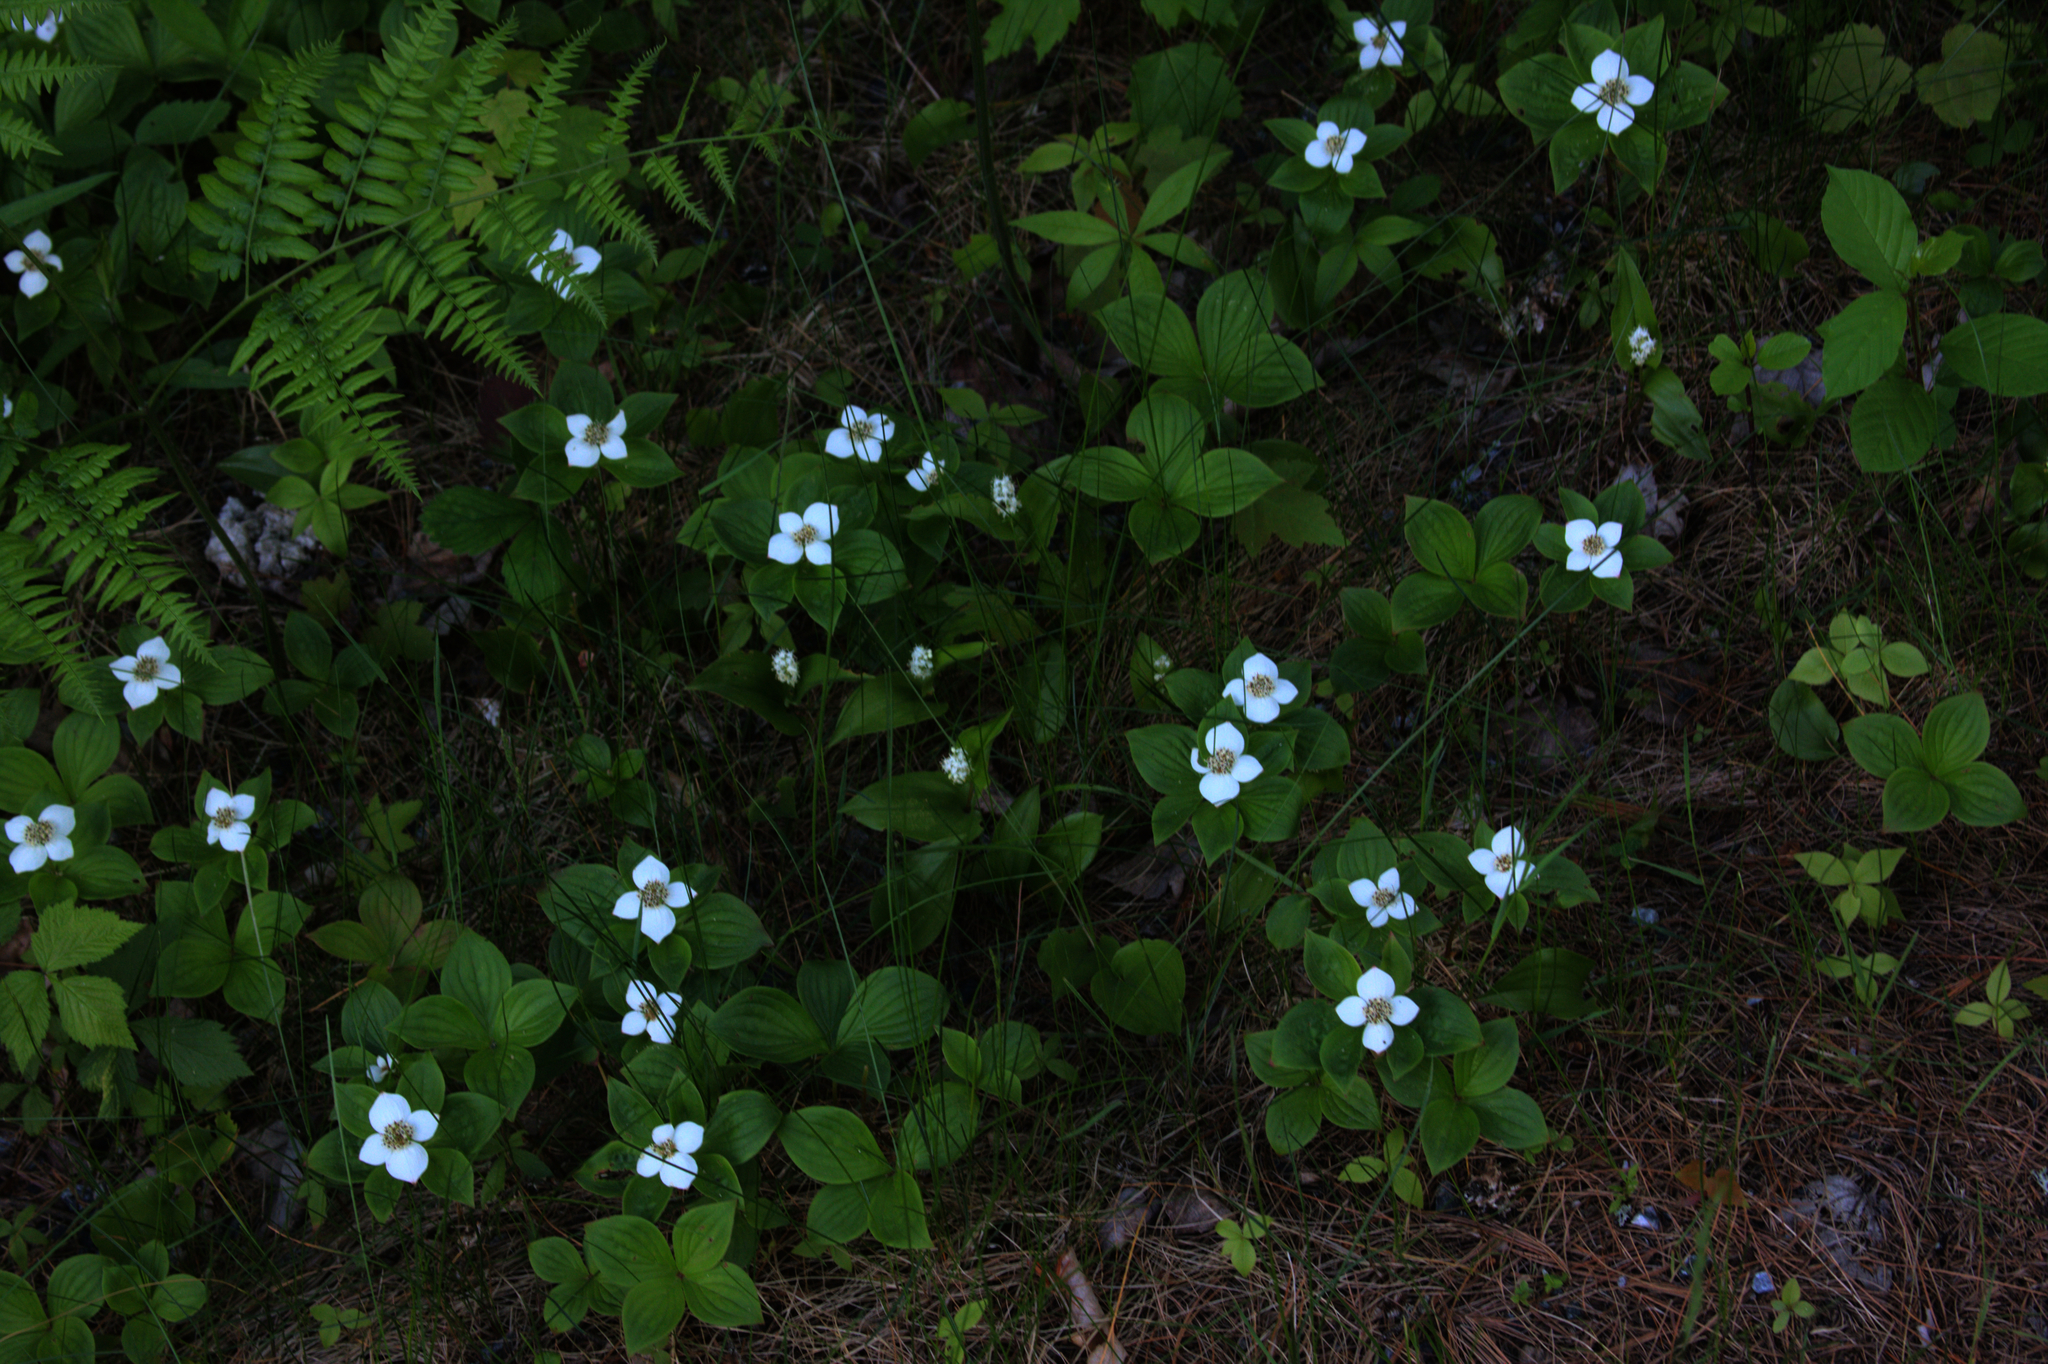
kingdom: Plantae
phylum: Tracheophyta
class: Magnoliopsida
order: Cornales
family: Cornaceae
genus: Cornus
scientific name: Cornus canadensis
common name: Creeping dogwood
